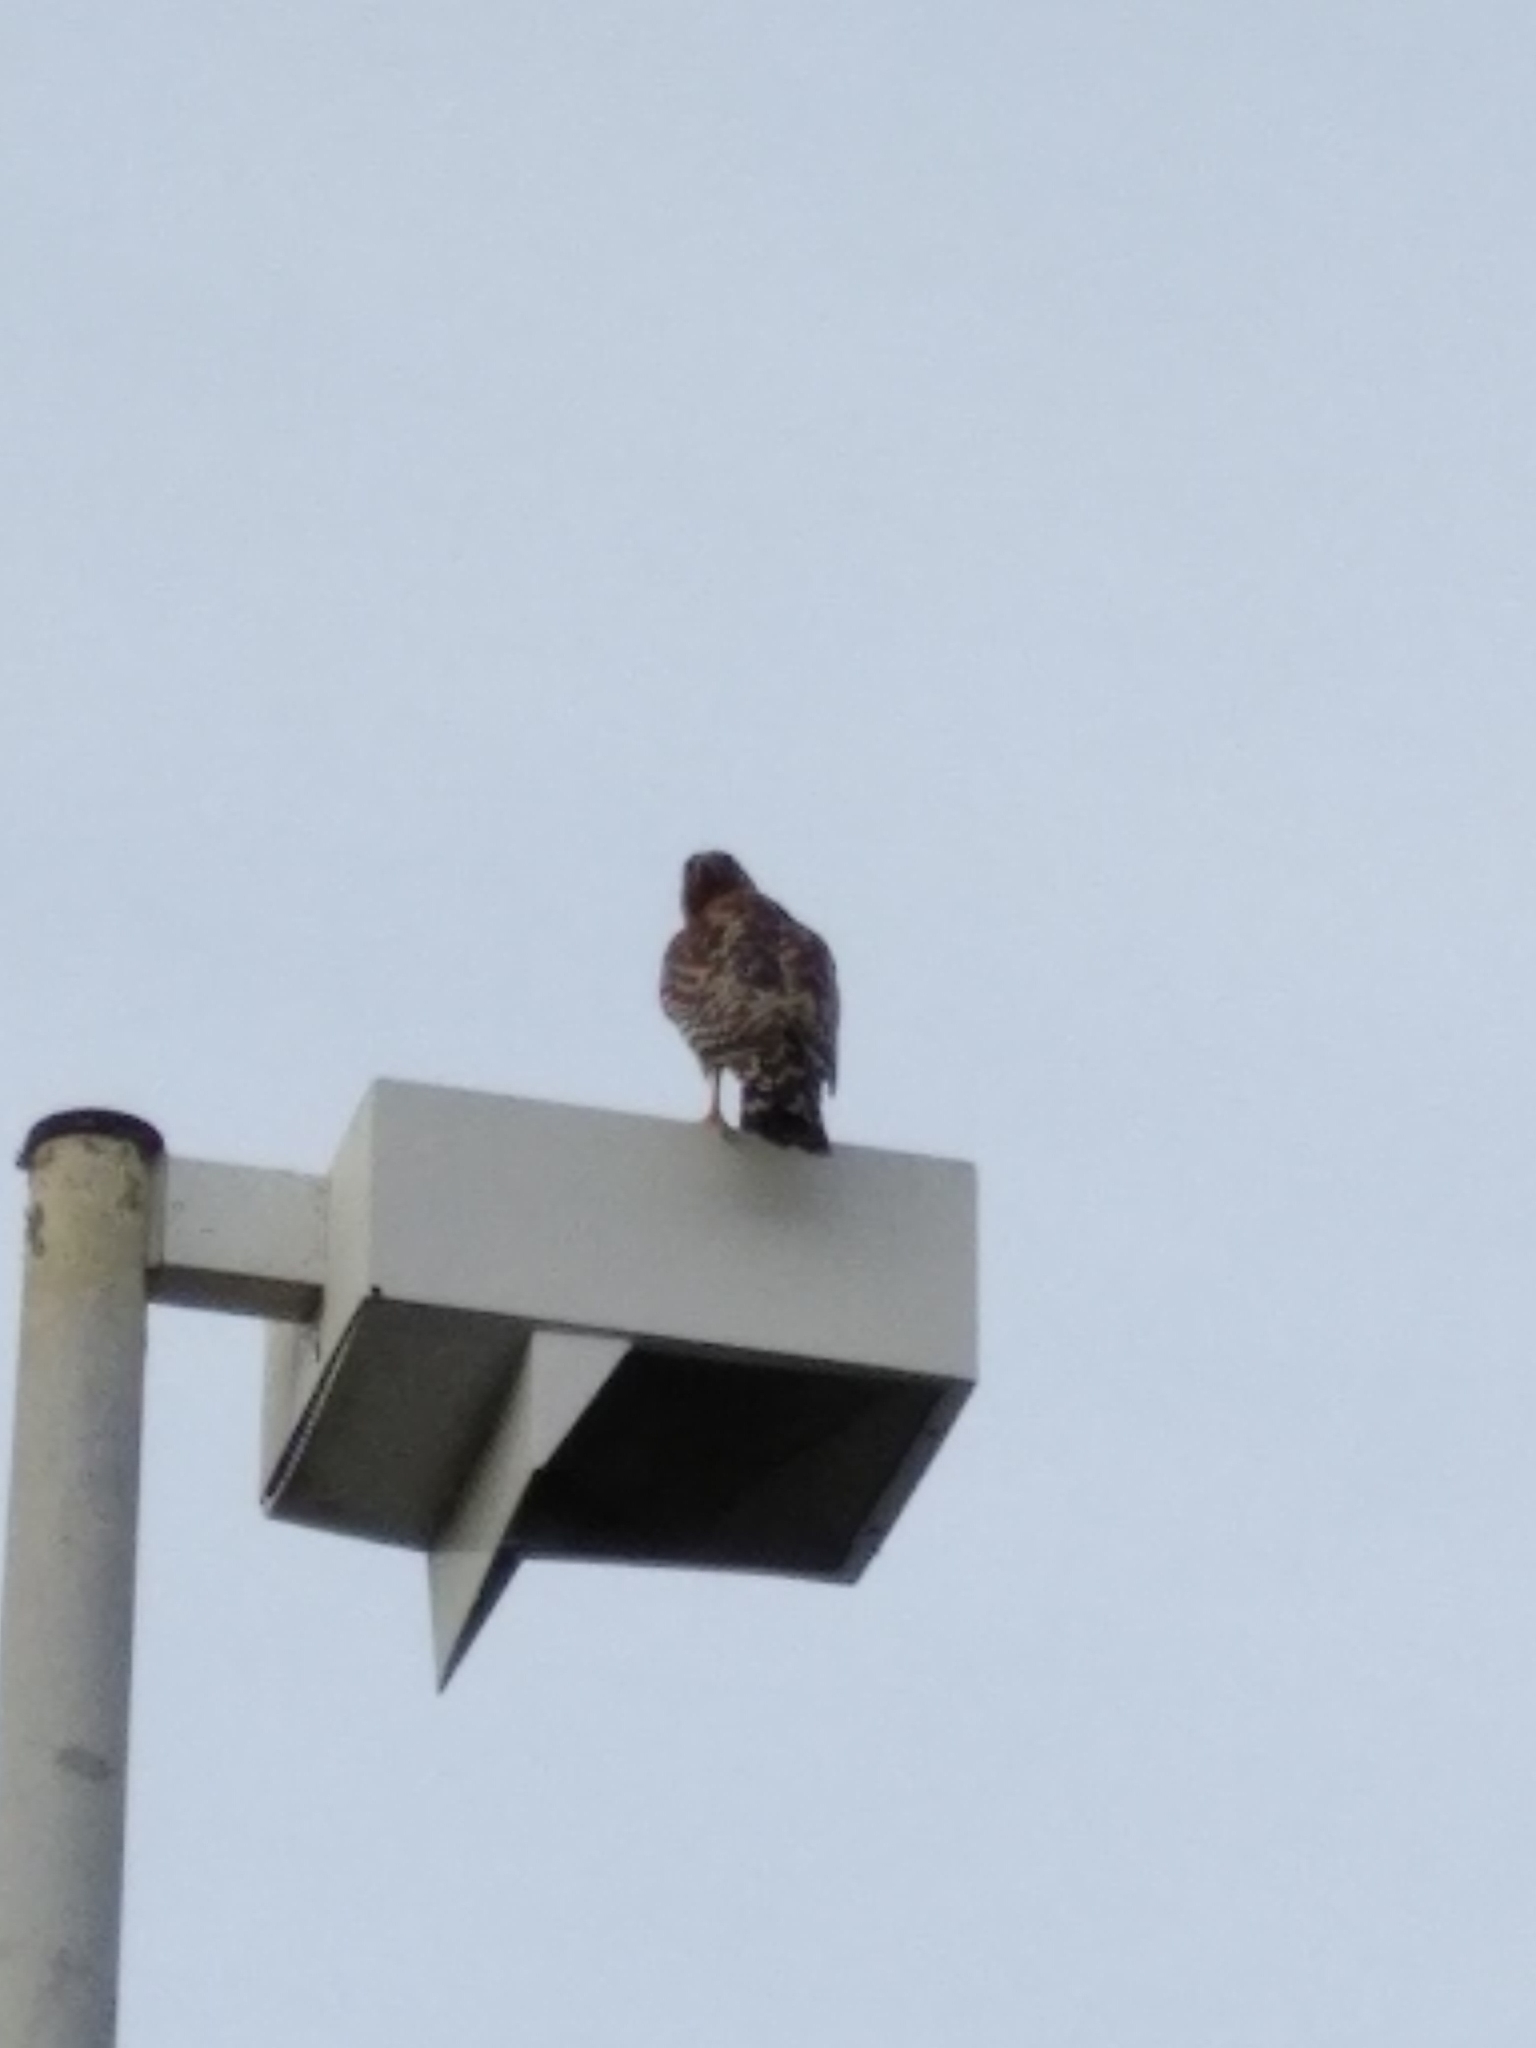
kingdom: Animalia
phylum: Chordata
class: Aves
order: Accipitriformes
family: Accipitridae
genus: Buteo
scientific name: Buteo lineatus
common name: Red-shouldered hawk
